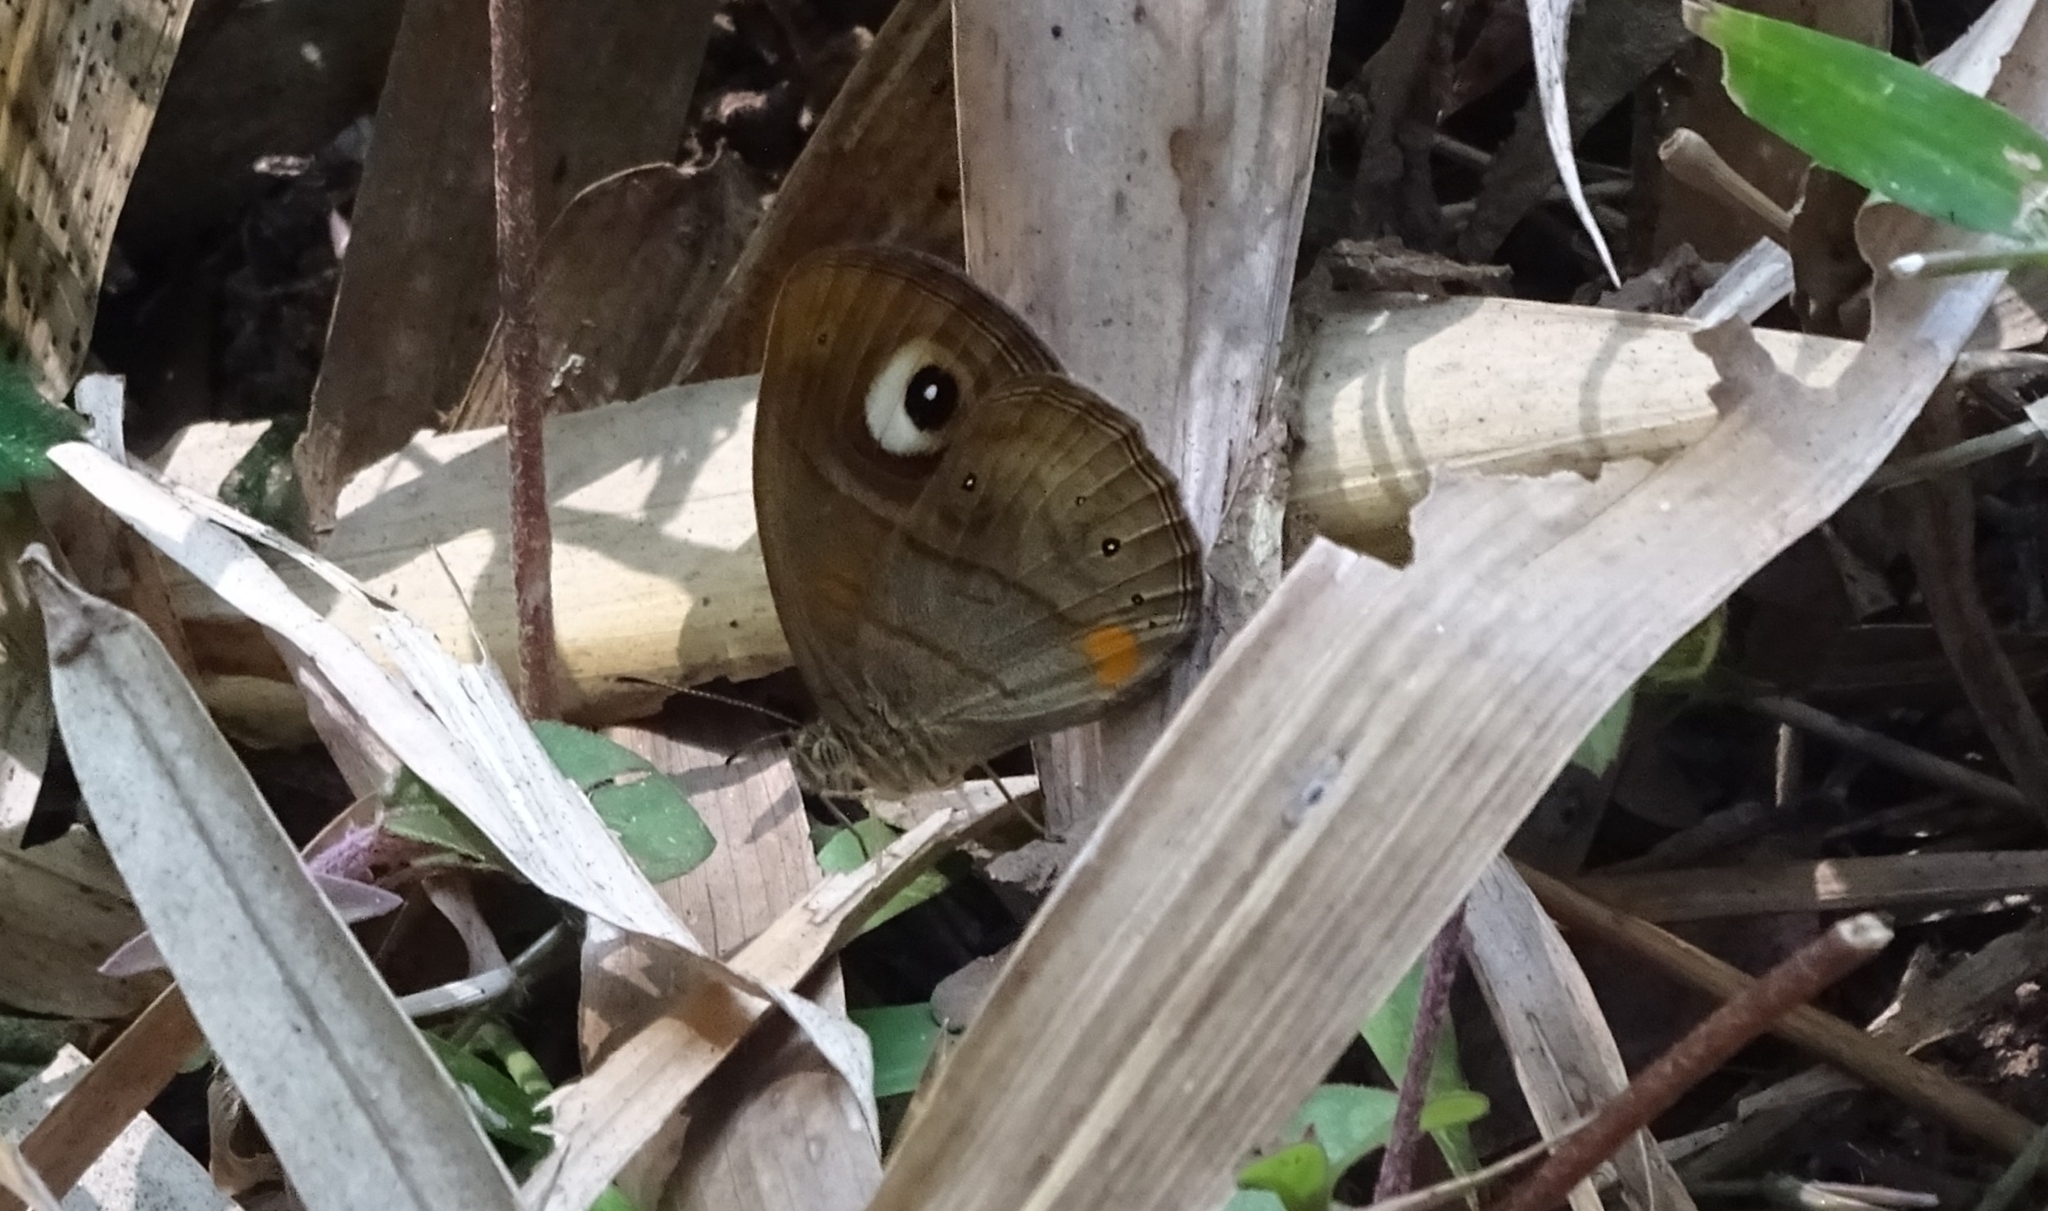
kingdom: Animalia
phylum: Arthropoda
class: Insecta
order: Lepidoptera
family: Nymphalidae
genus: Mycalesis
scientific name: Mycalesis patnia
